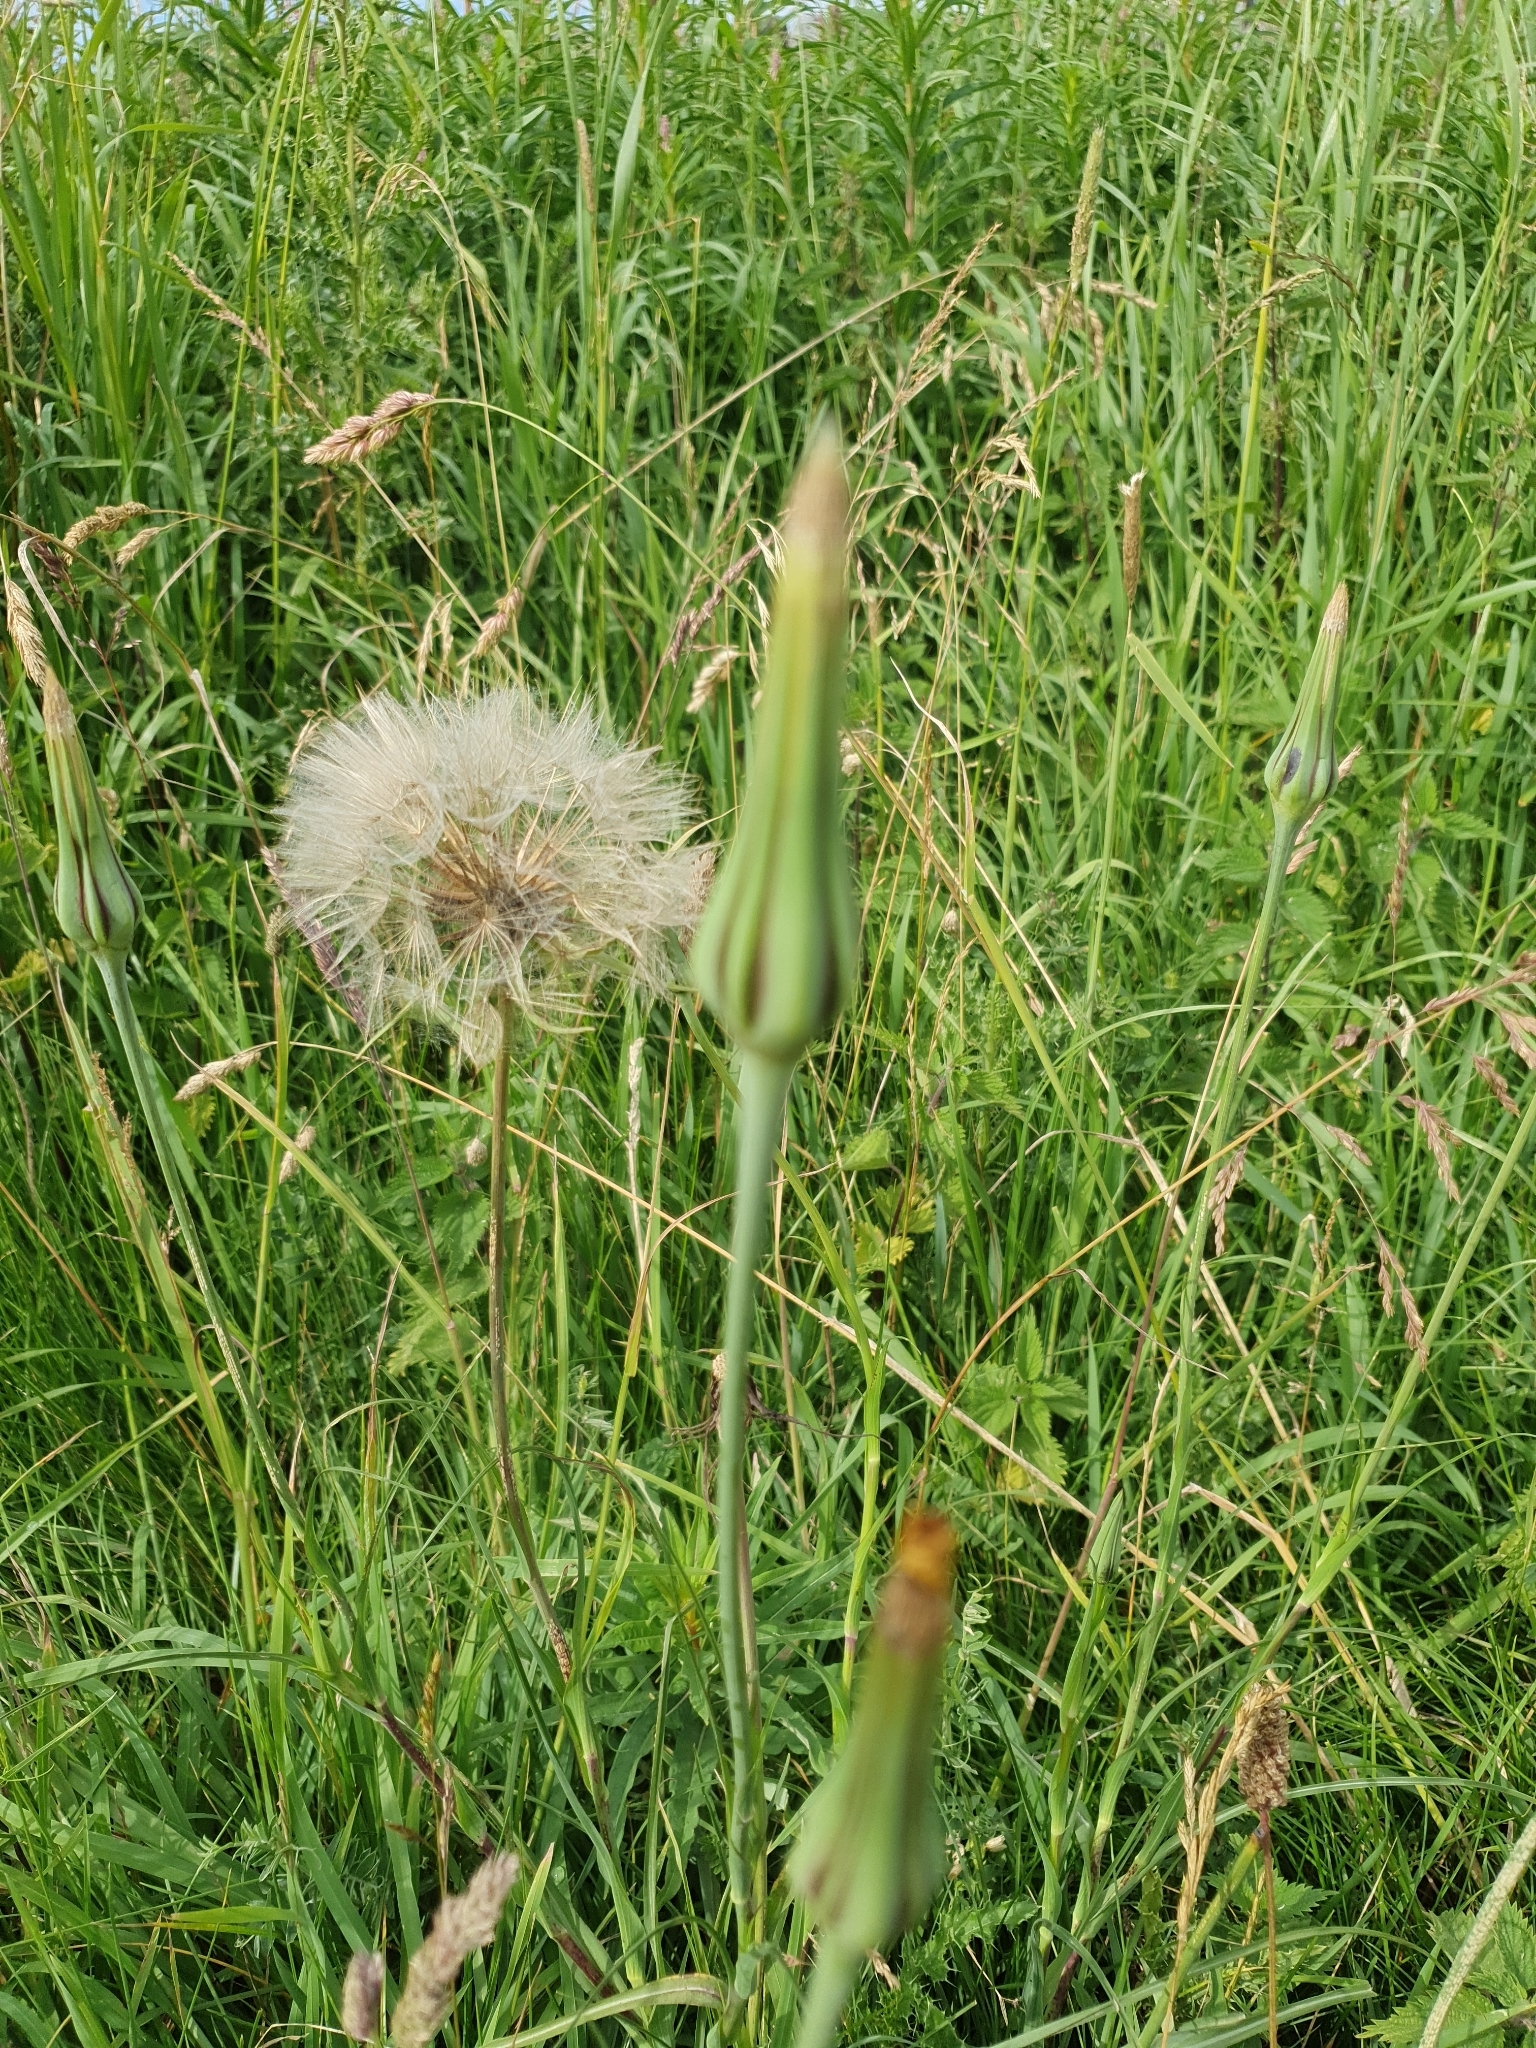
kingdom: Plantae
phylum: Tracheophyta
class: Magnoliopsida
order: Asterales
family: Asteraceae
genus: Tragopogon
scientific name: Tragopogon pratensis
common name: Goat's-beard
